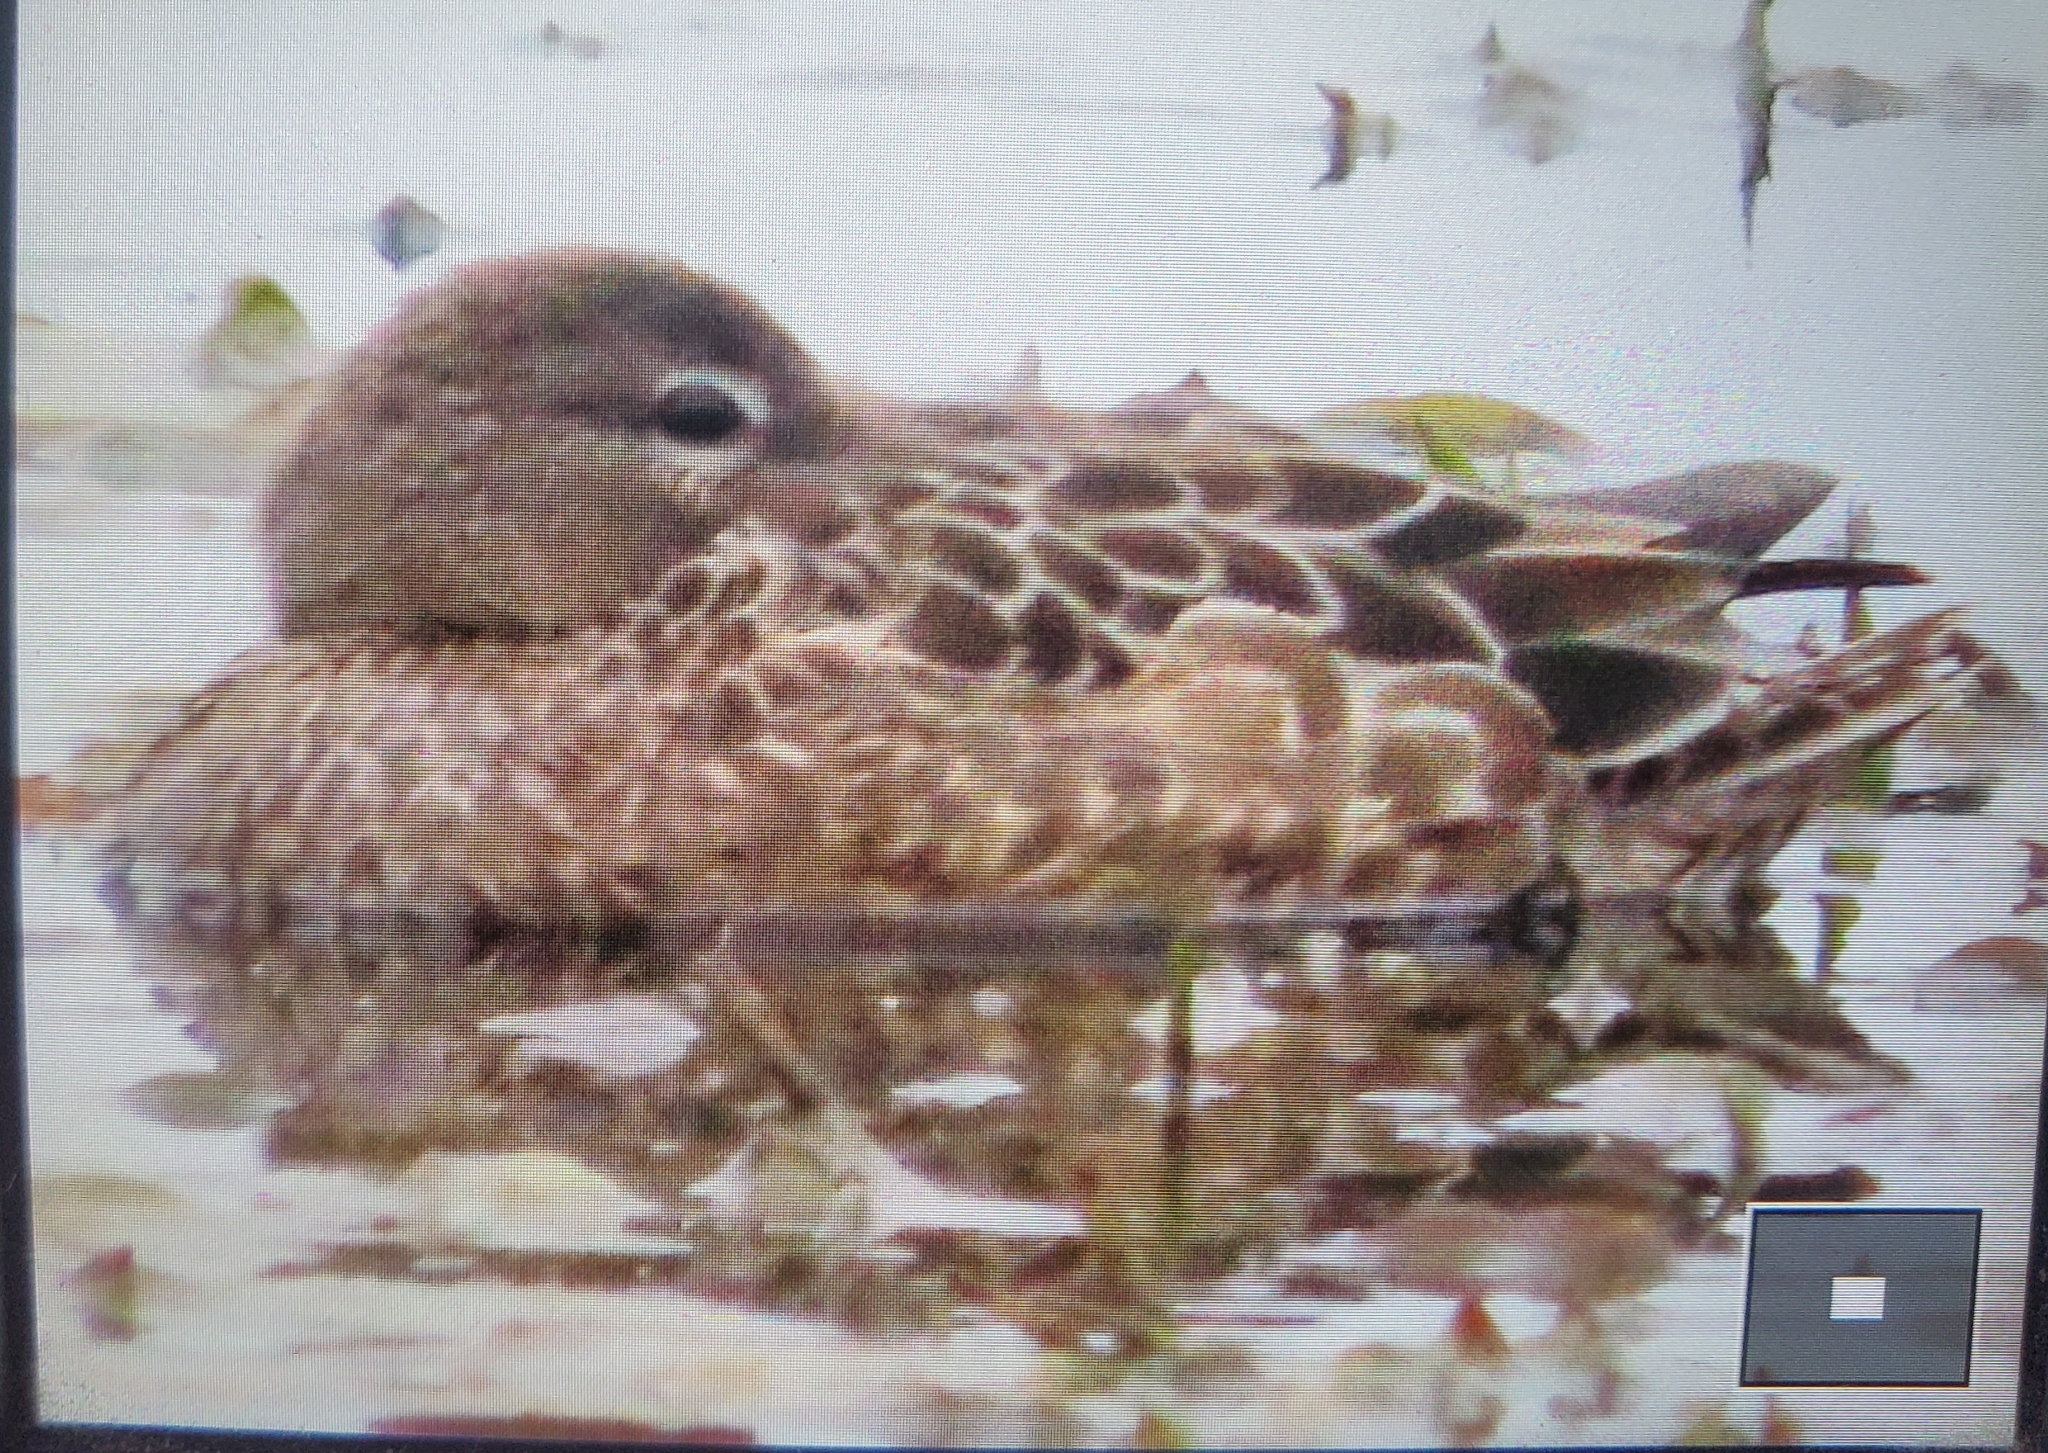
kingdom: Animalia
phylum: Chordata
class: Aves
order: Anseriformes
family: Anatidae
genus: Spatula
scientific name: Spatula discors
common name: Blue-winged teal
